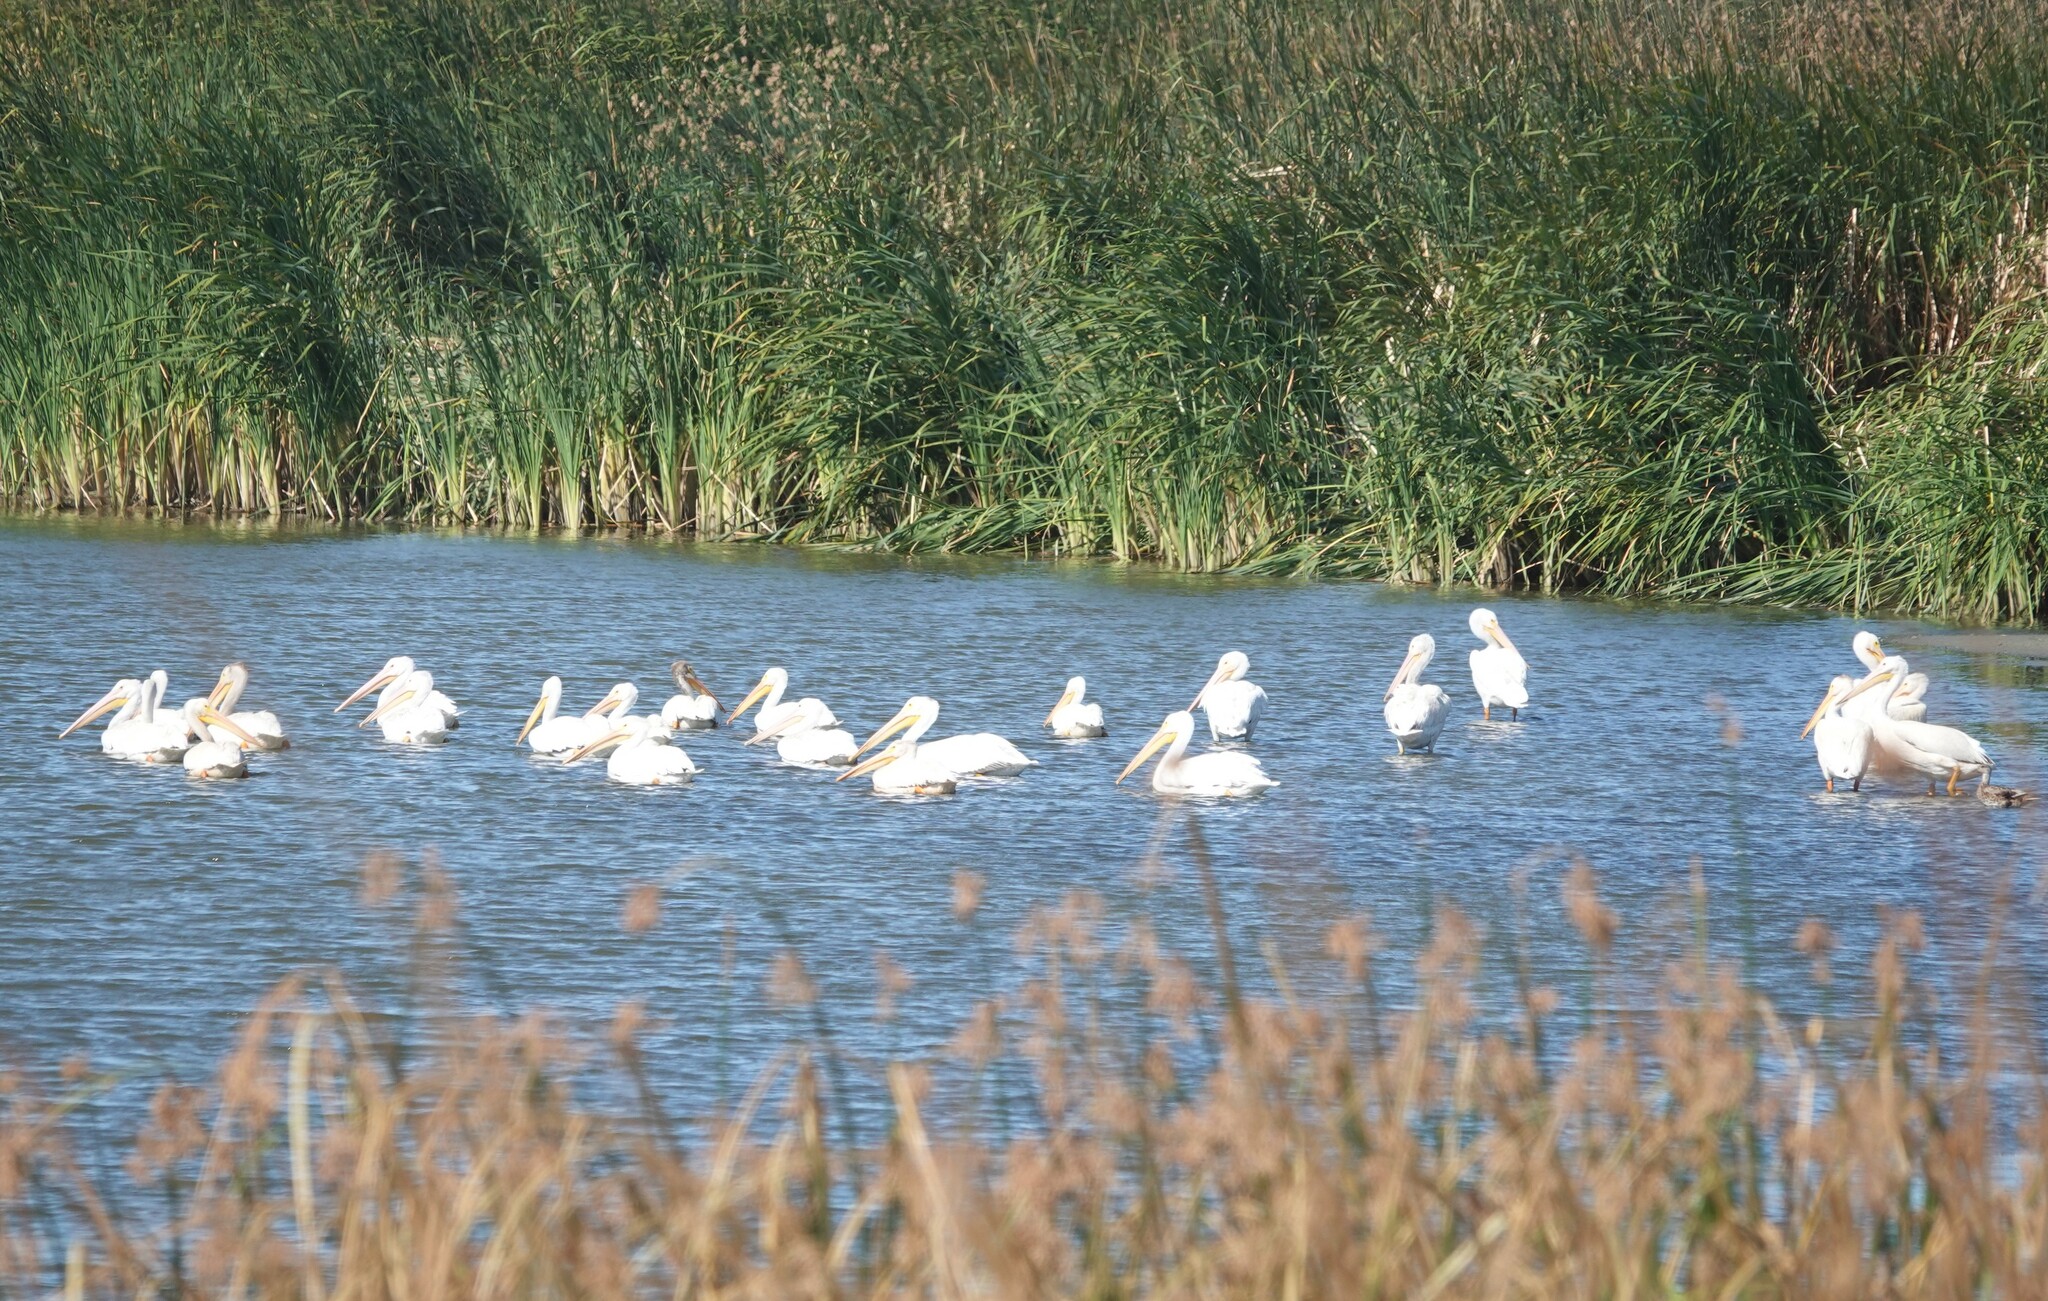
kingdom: Animalia
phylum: Chordata
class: Aves
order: Pelecaniformes
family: Pelecanidae
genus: Pelecanus
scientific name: Pelecanus erythrorhynchos
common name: American white pelican
